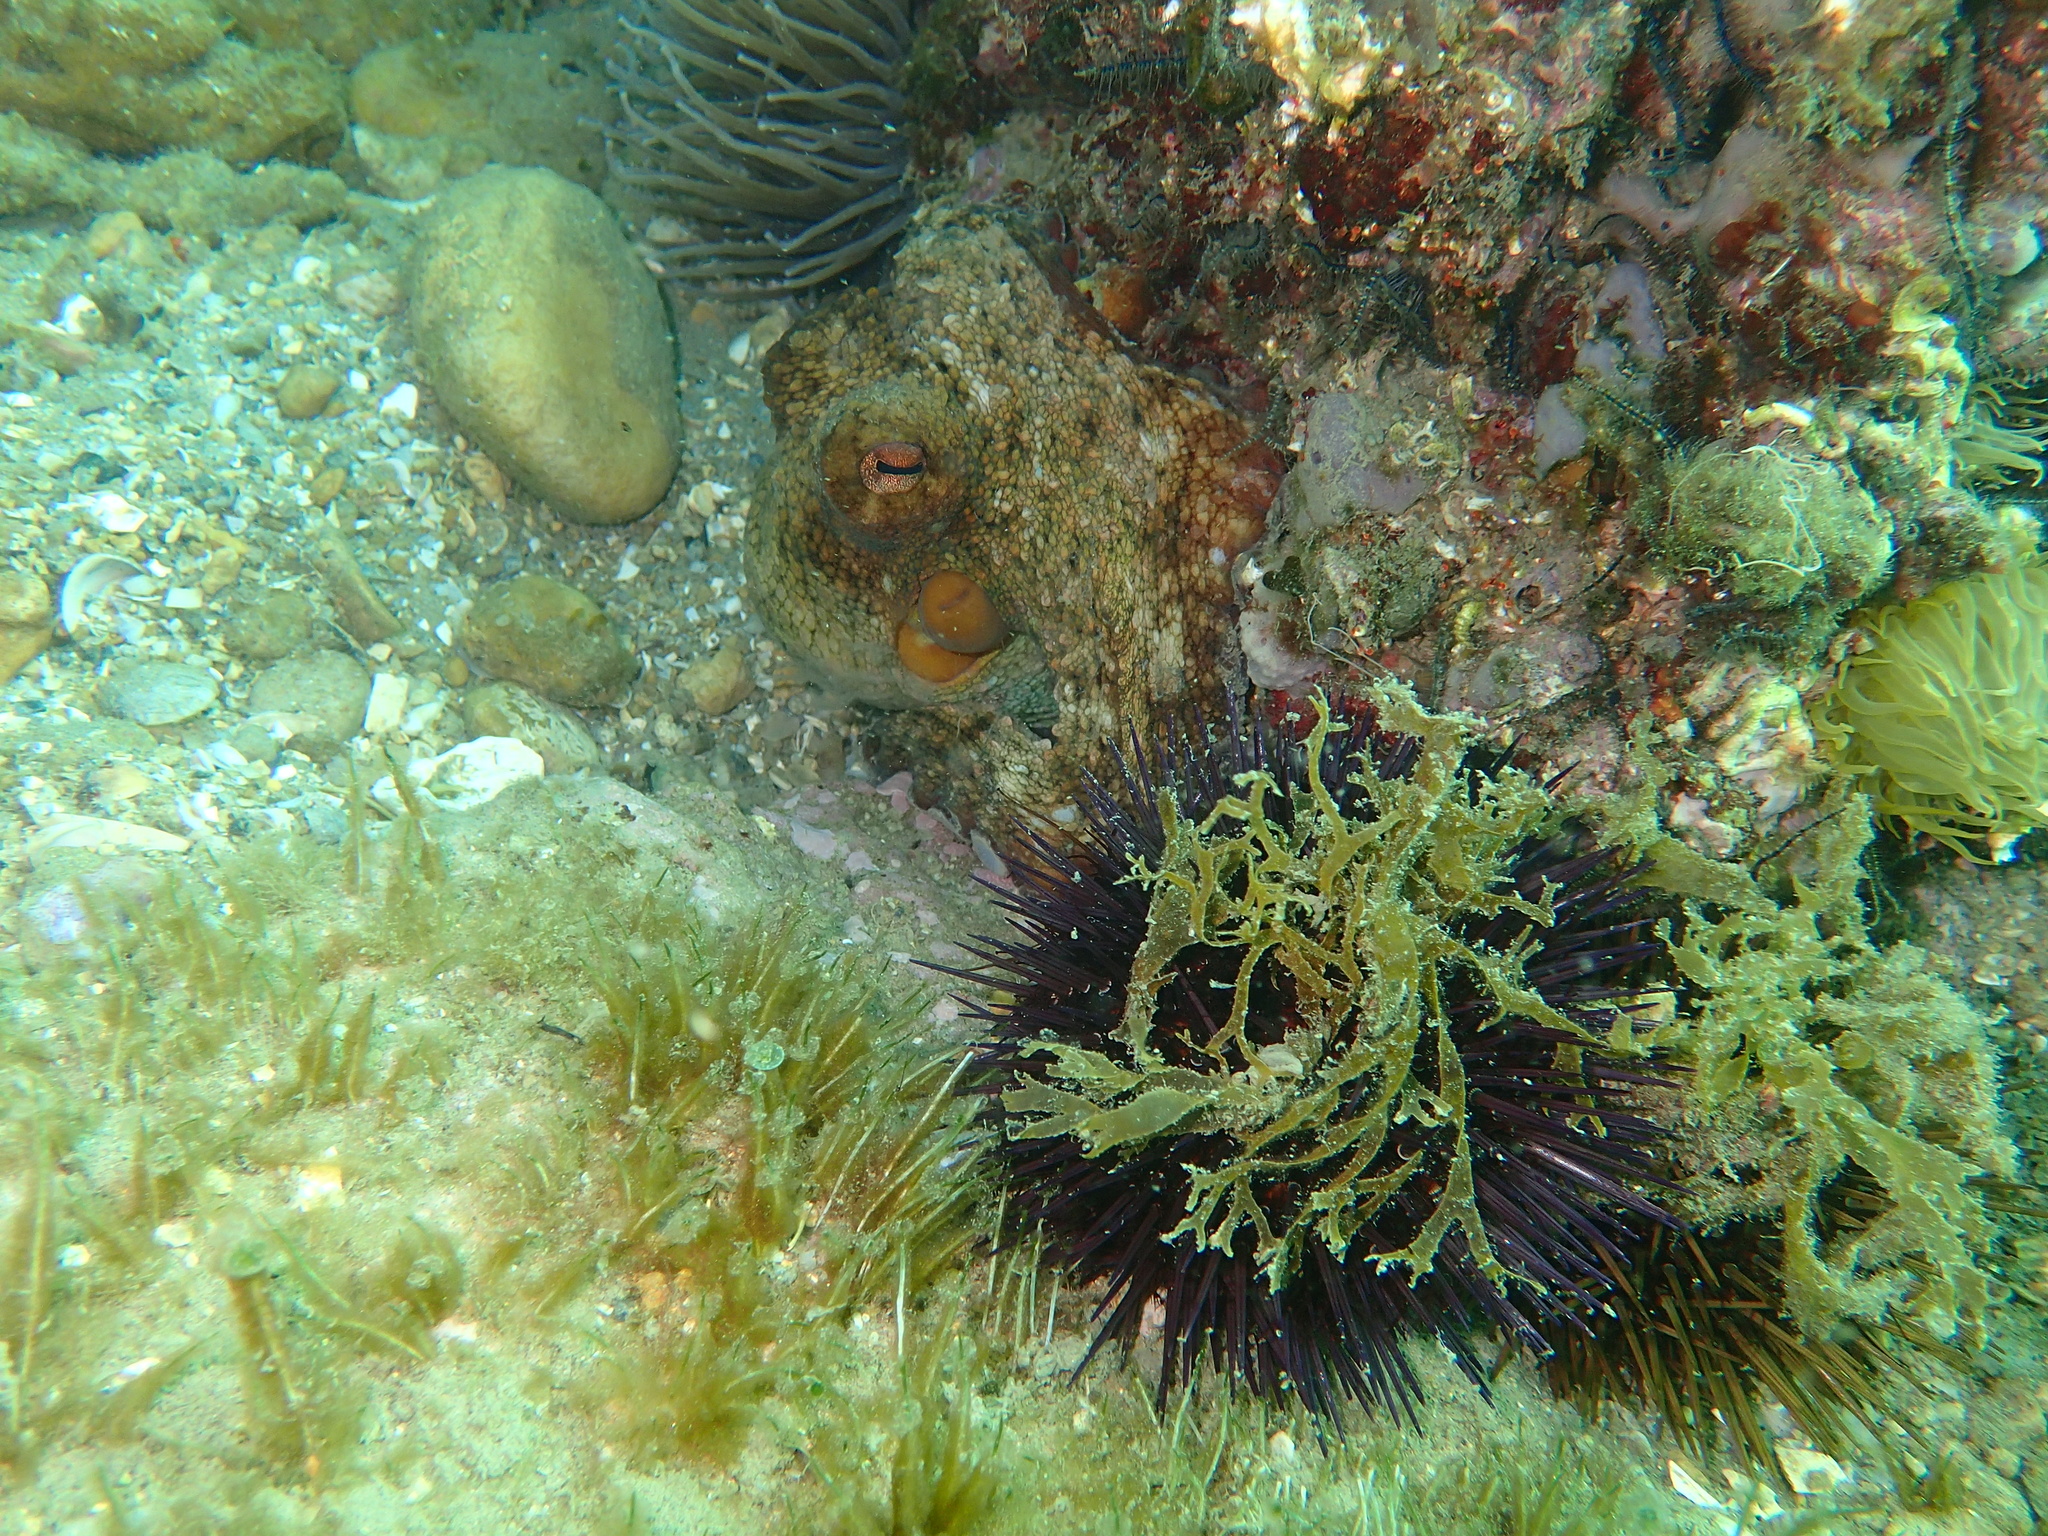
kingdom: Animalia
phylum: Mollusca
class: Cephalopoda
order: Octopoda
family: Octopodidae
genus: Octopus
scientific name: Octopus vulgaris
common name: Common octopus
